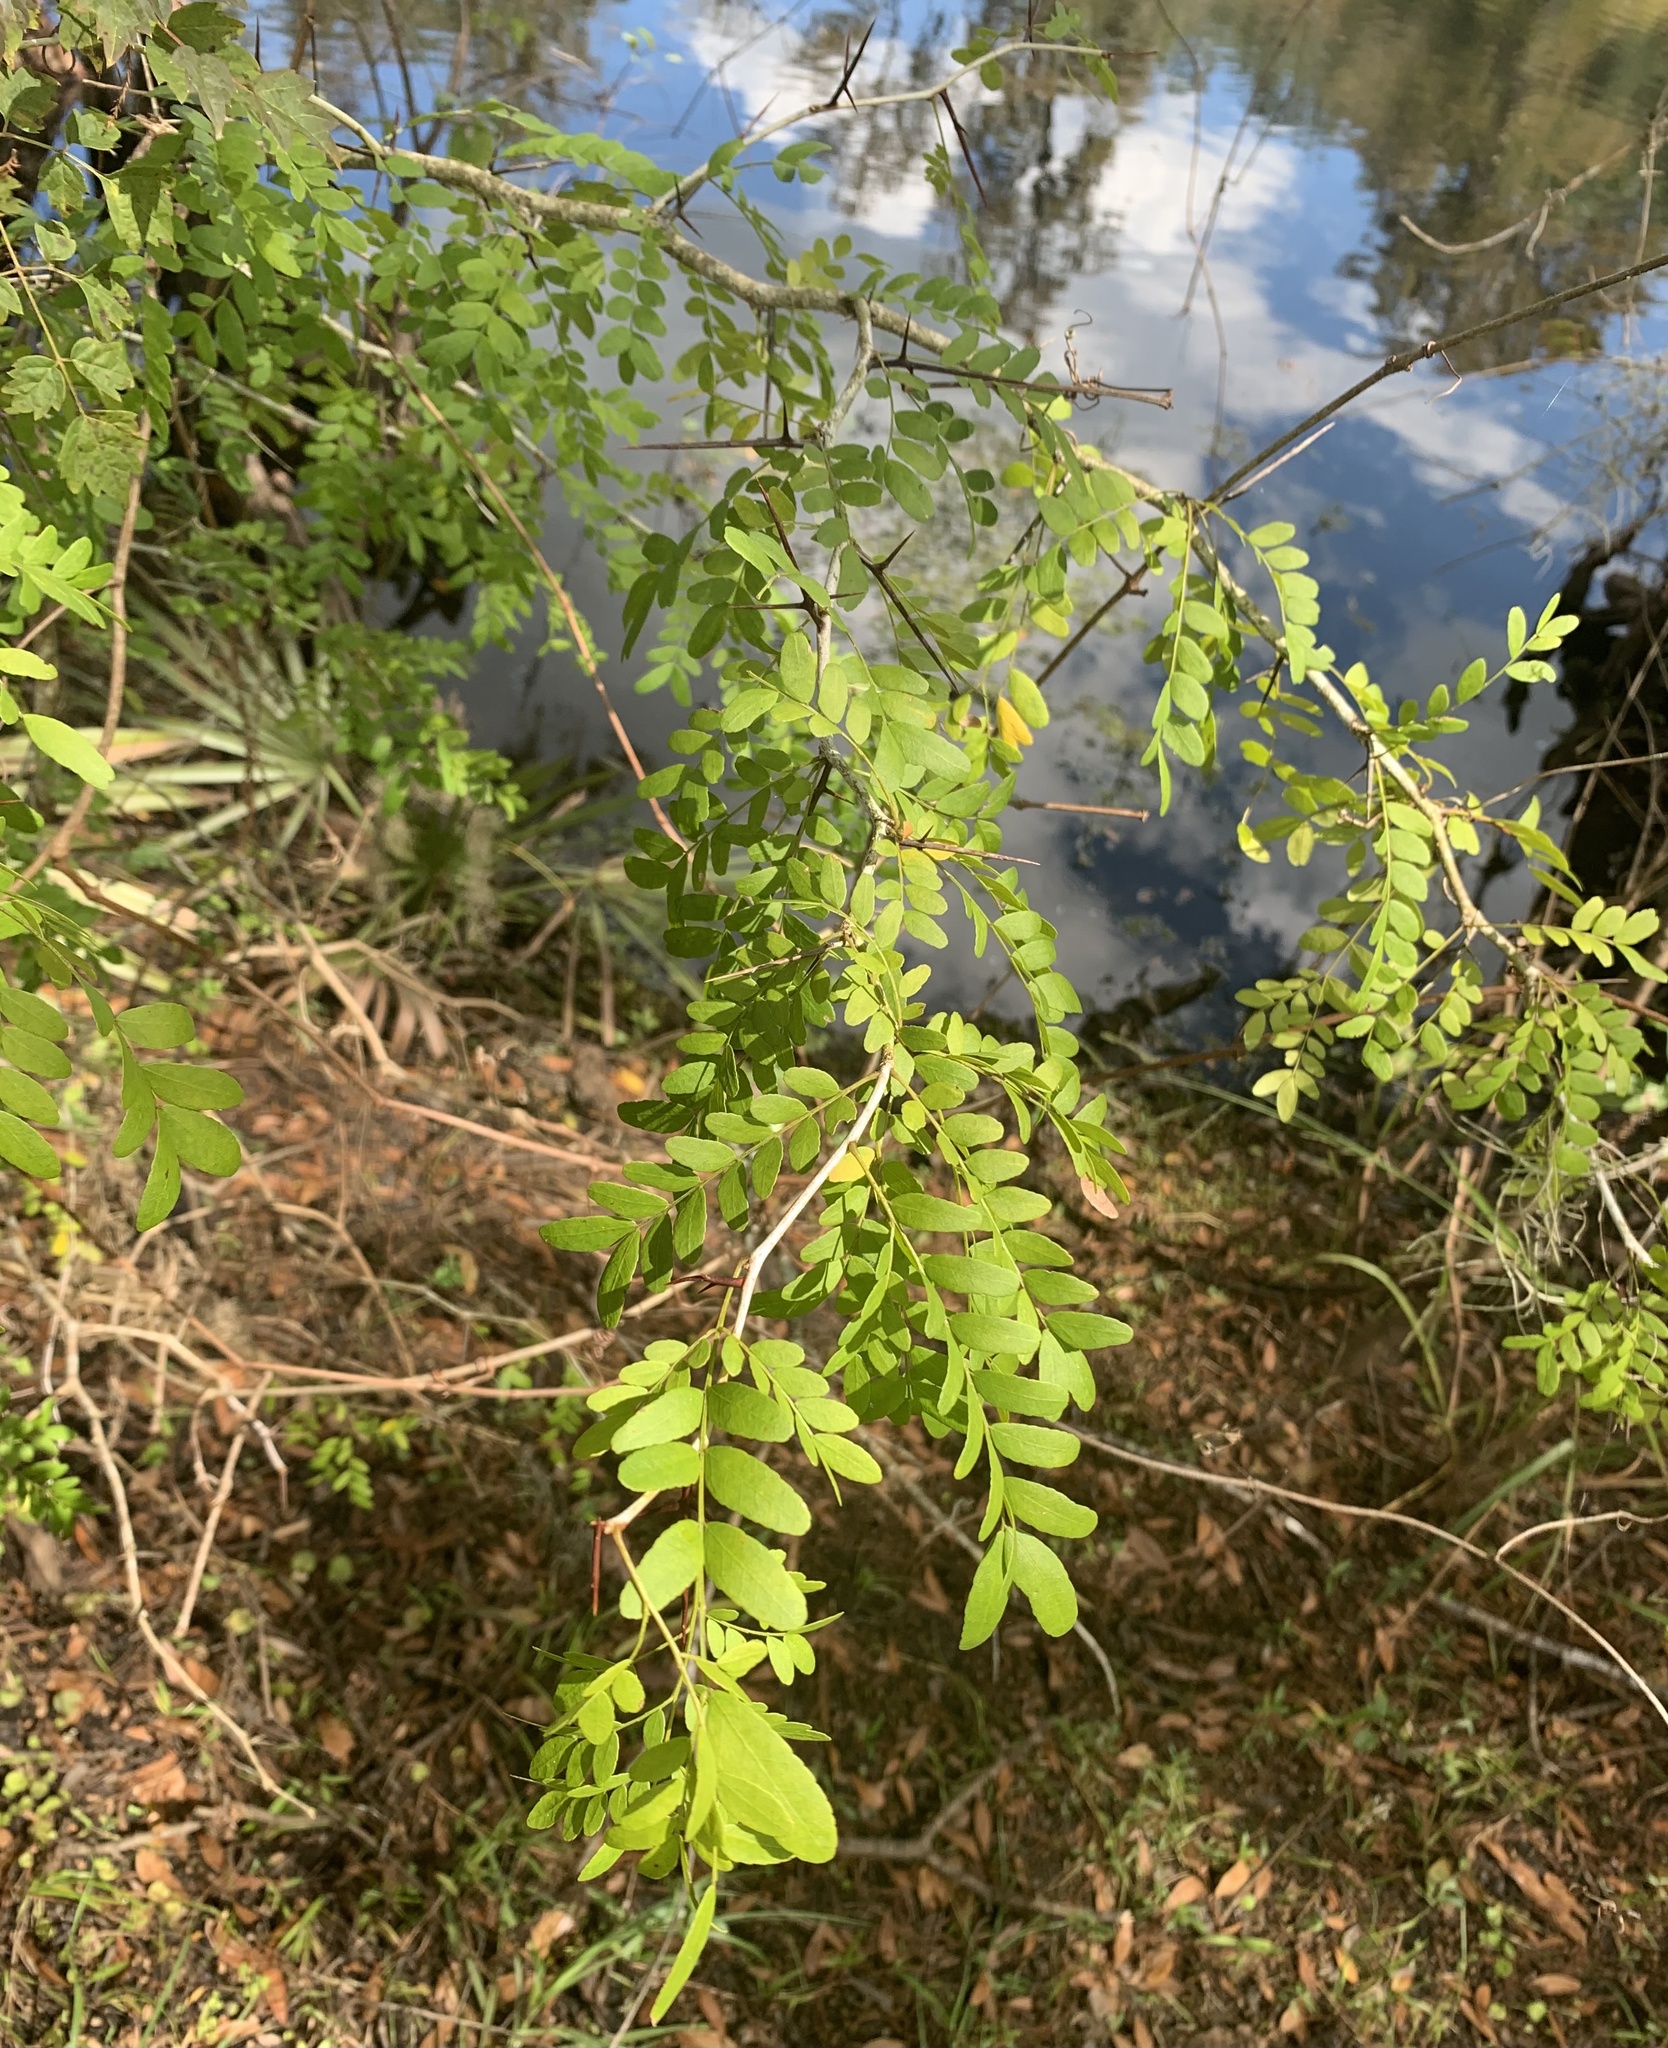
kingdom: Plantae
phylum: Tracheophyta
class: Magnoliopsida
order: Fabales
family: Fabaceae
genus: Gleditsia
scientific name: Gleditsia aquatica
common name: Swamp-locust
